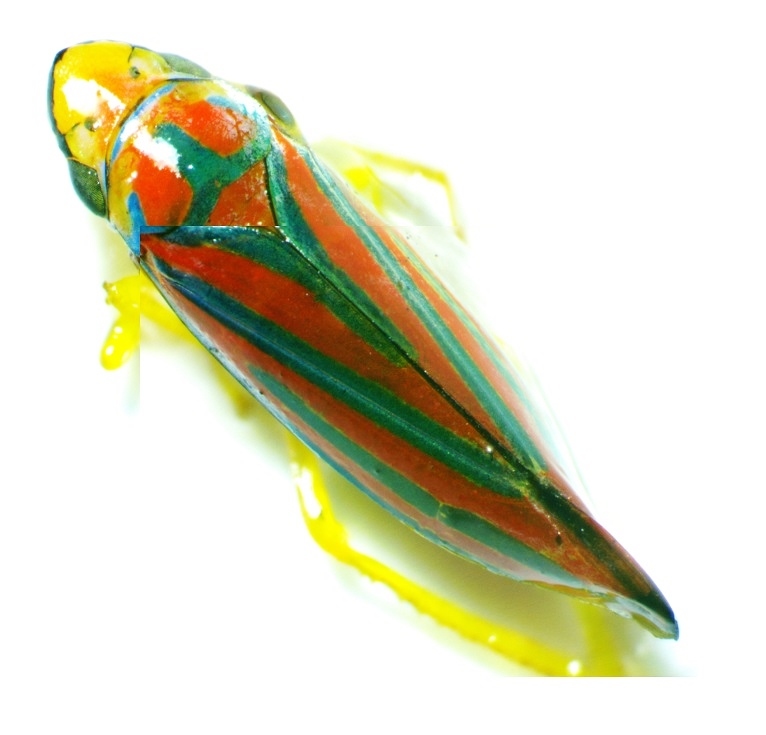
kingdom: Animalia
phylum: Arthropoda
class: Insecta
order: Hemiptera
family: Cicadellidae
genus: Graphocephala
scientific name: Graphocephala coccinea
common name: Candy-striped leafhopper
